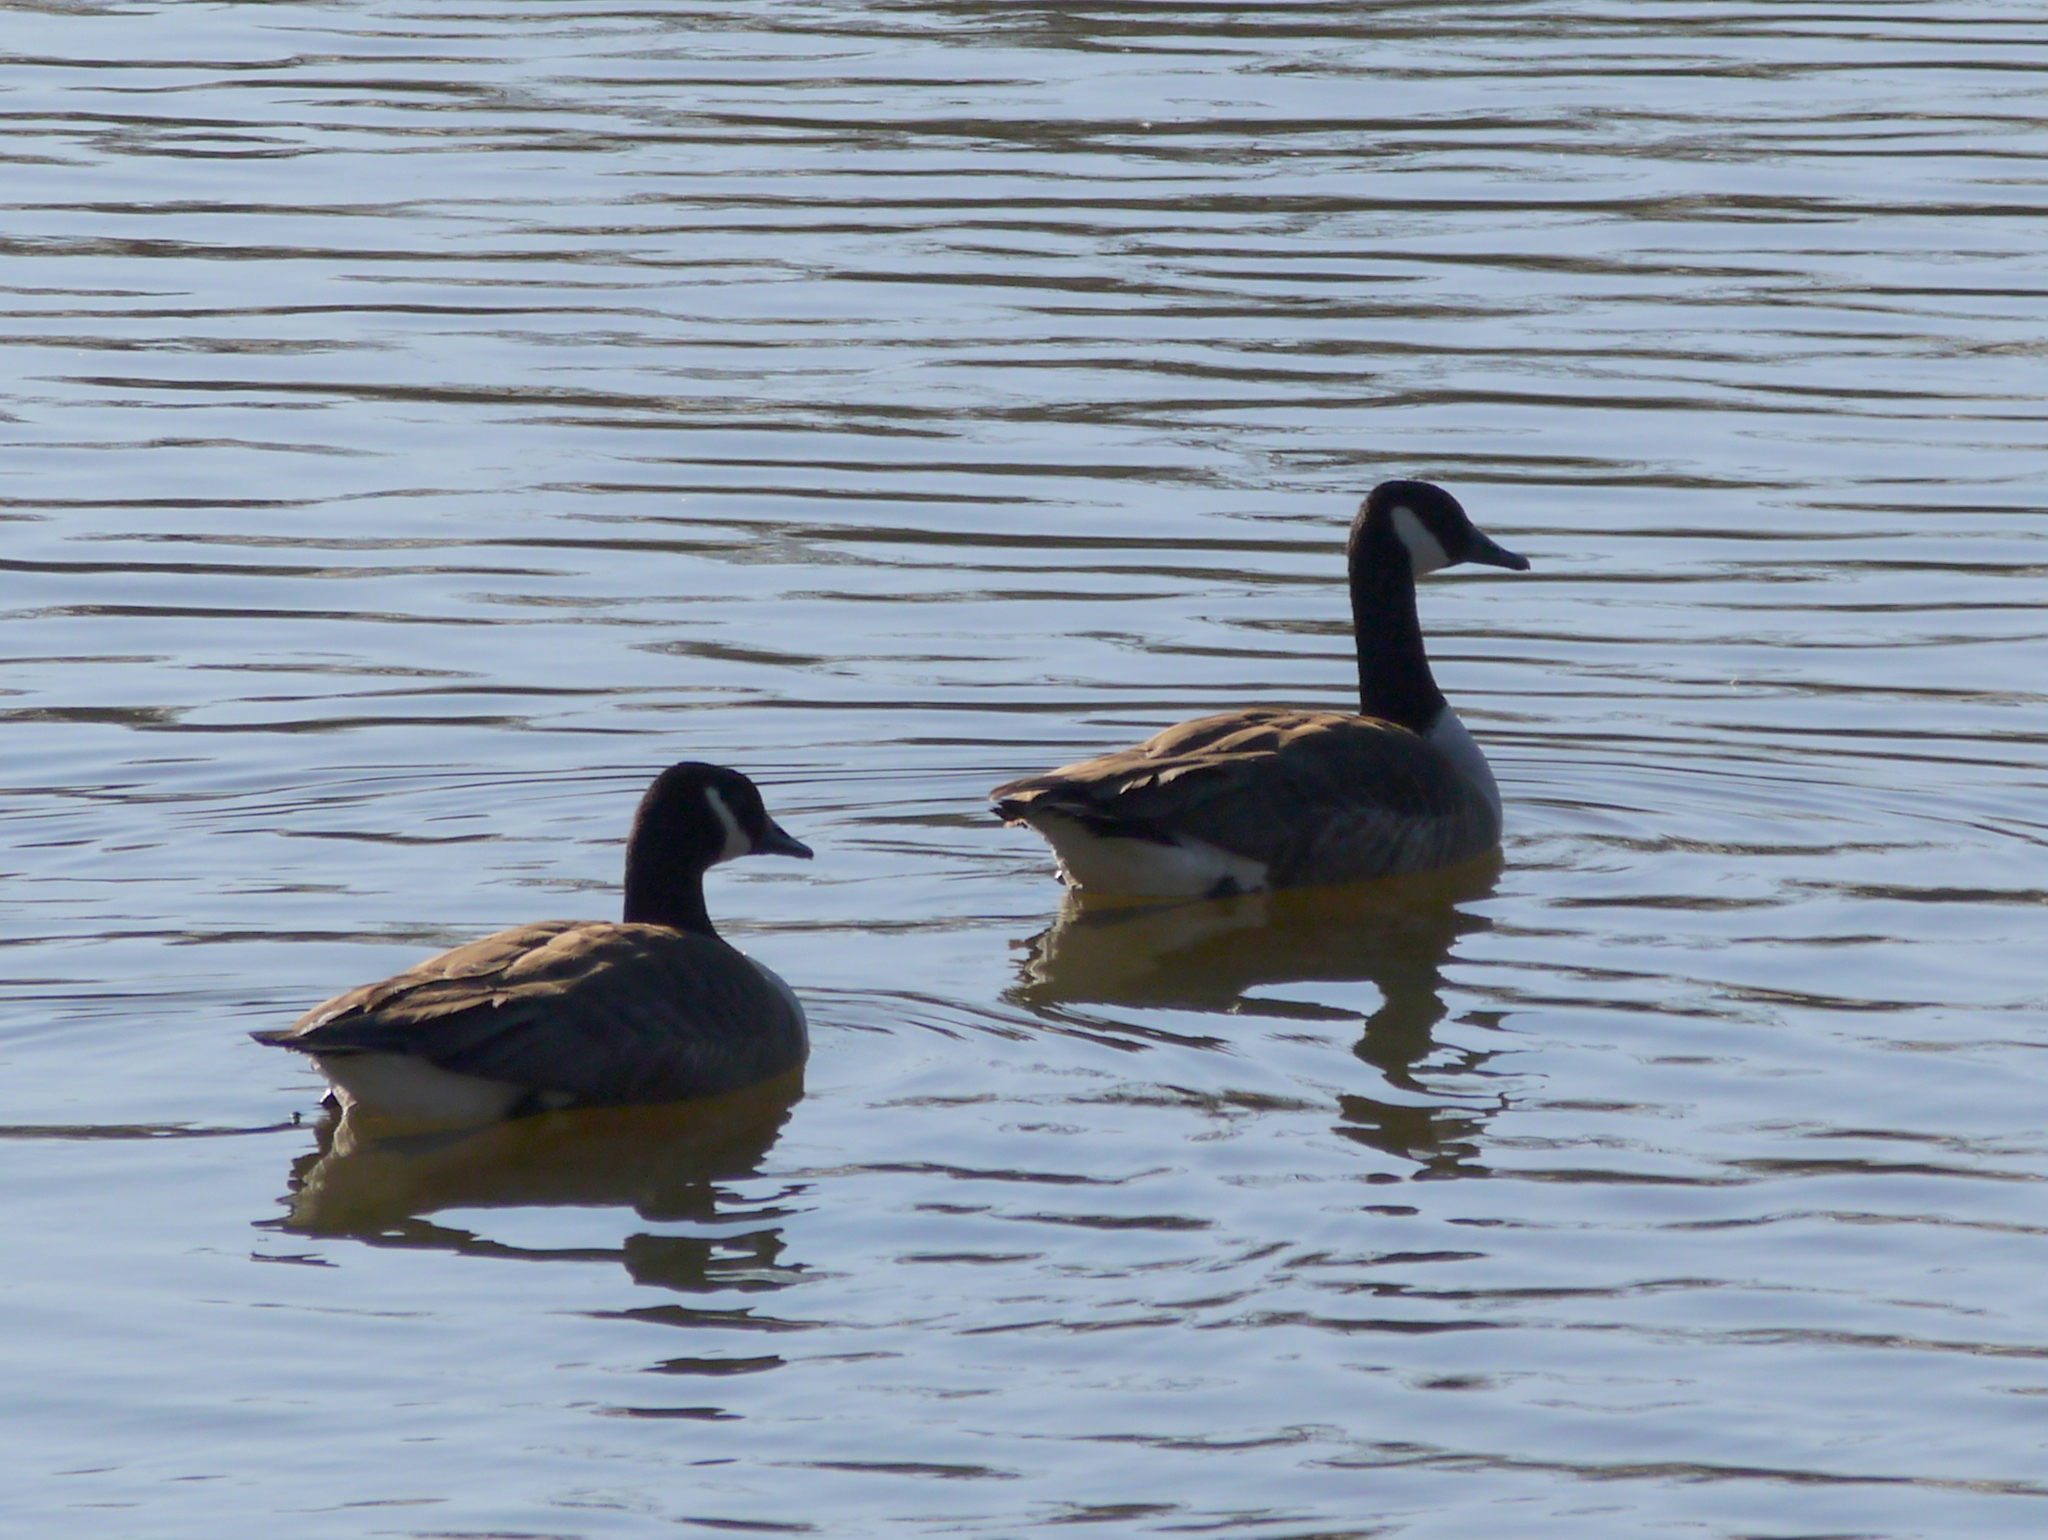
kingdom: Animalia
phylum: Chordata
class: Aves
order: Anseriformes
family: Anatidae
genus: Branta
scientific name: Branta canadensis
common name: Canada goose
